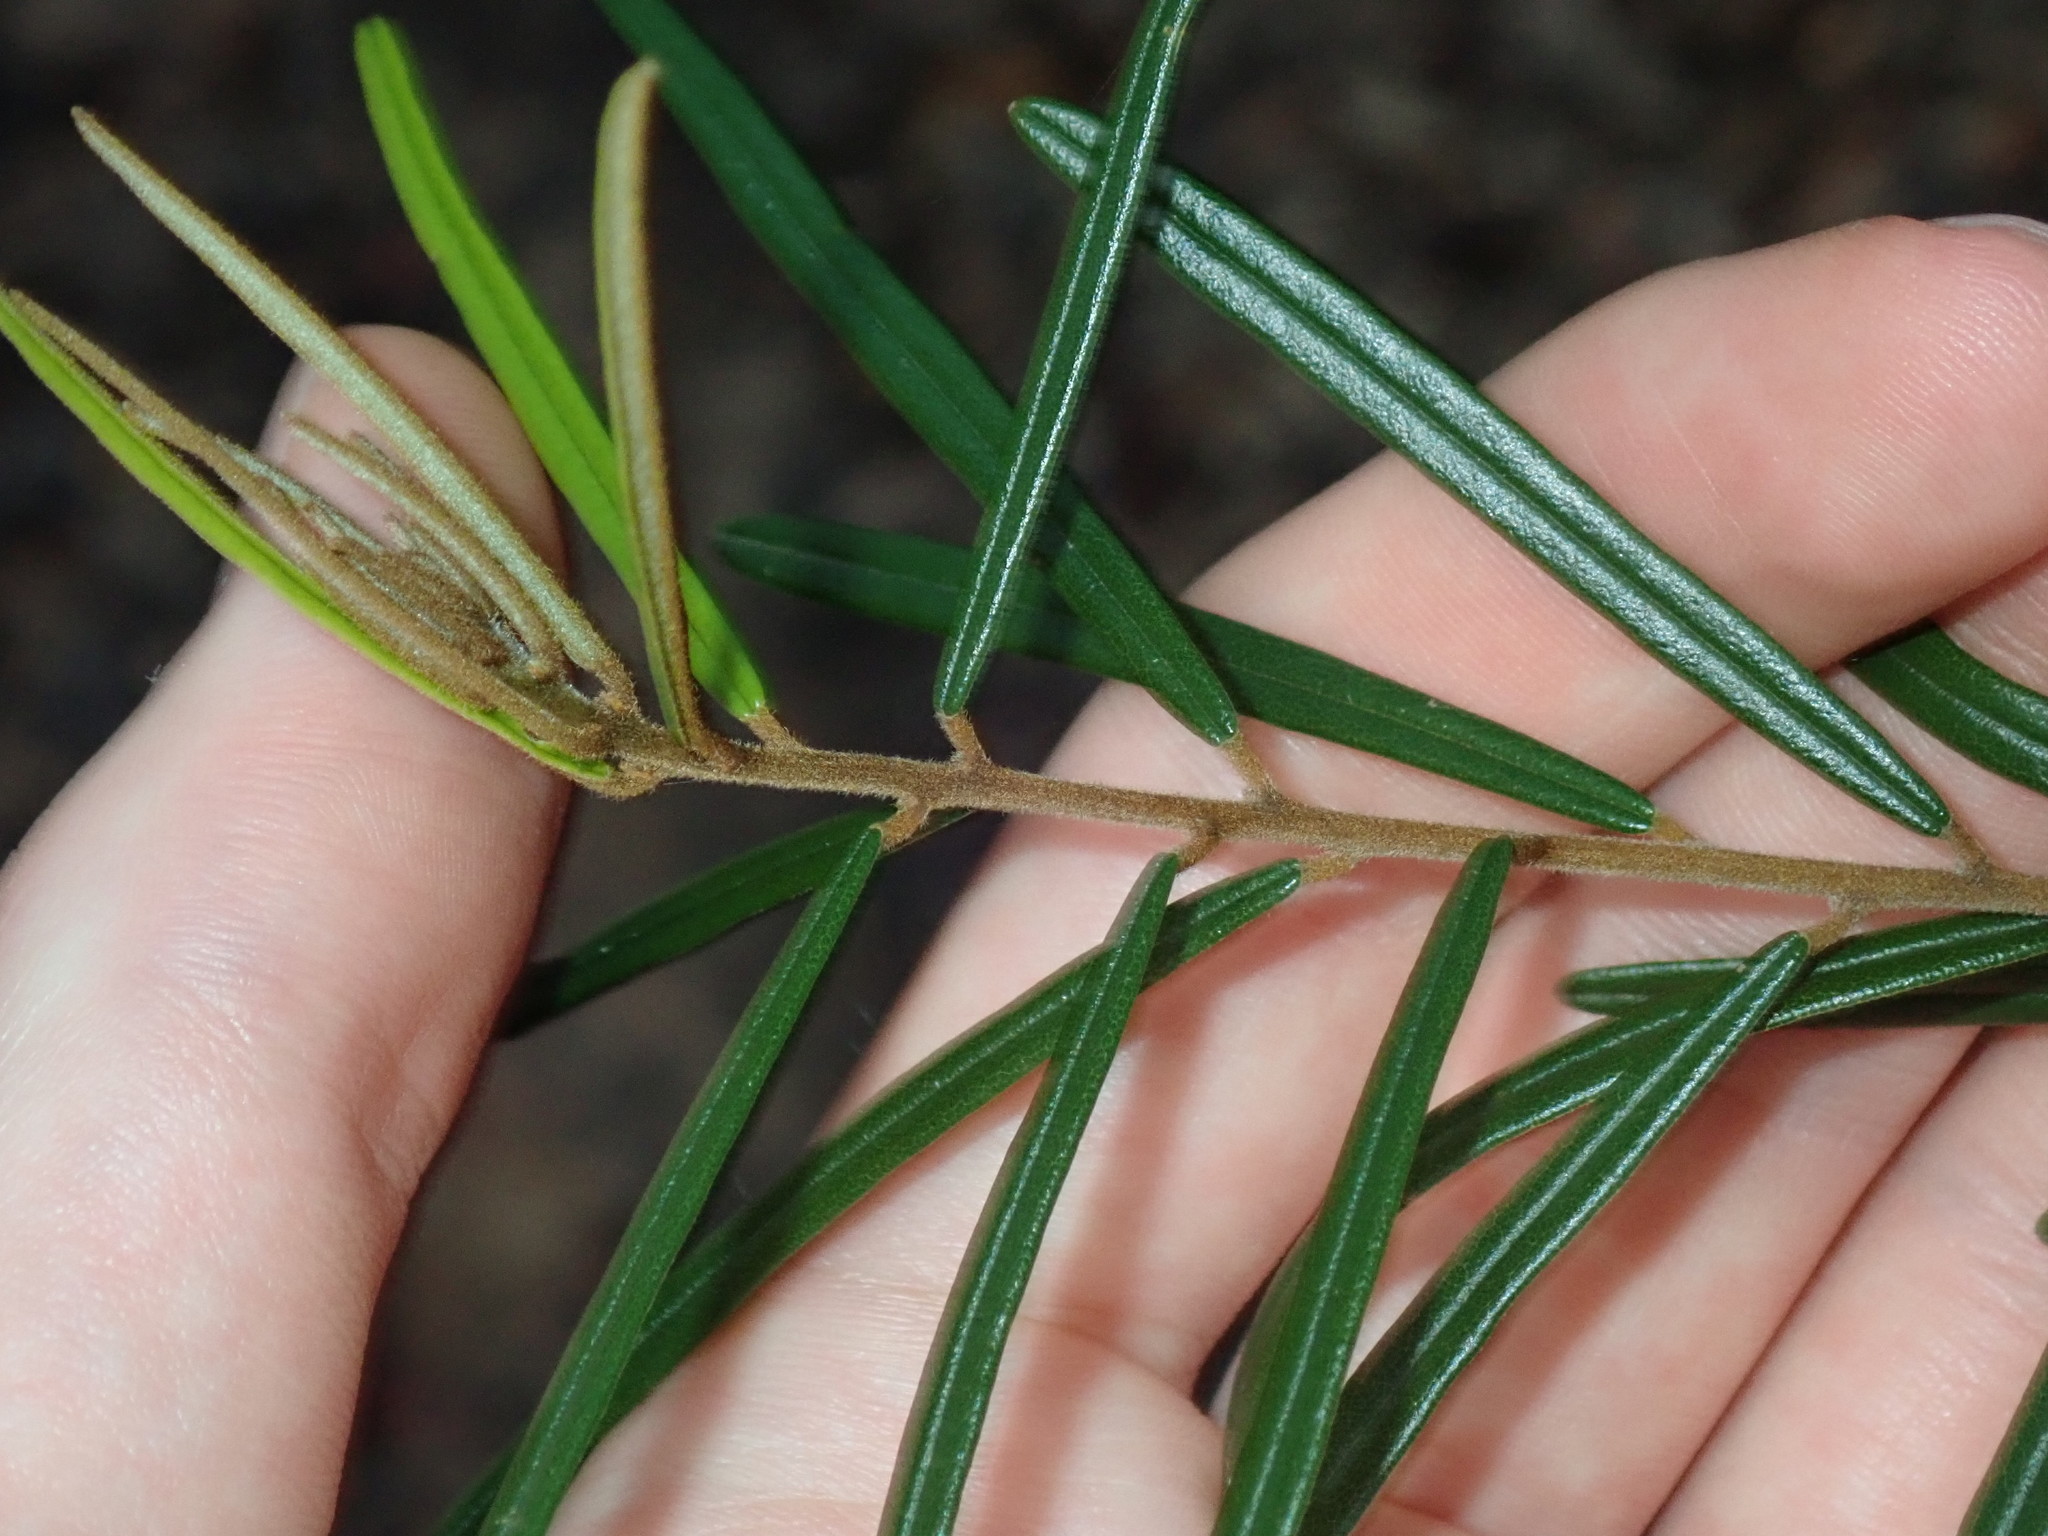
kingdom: Plantae
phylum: Tracheophyta
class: Magnoliopsida
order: Apiales
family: Araliaceae
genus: Astrotricha
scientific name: Astrotricha longifolia
